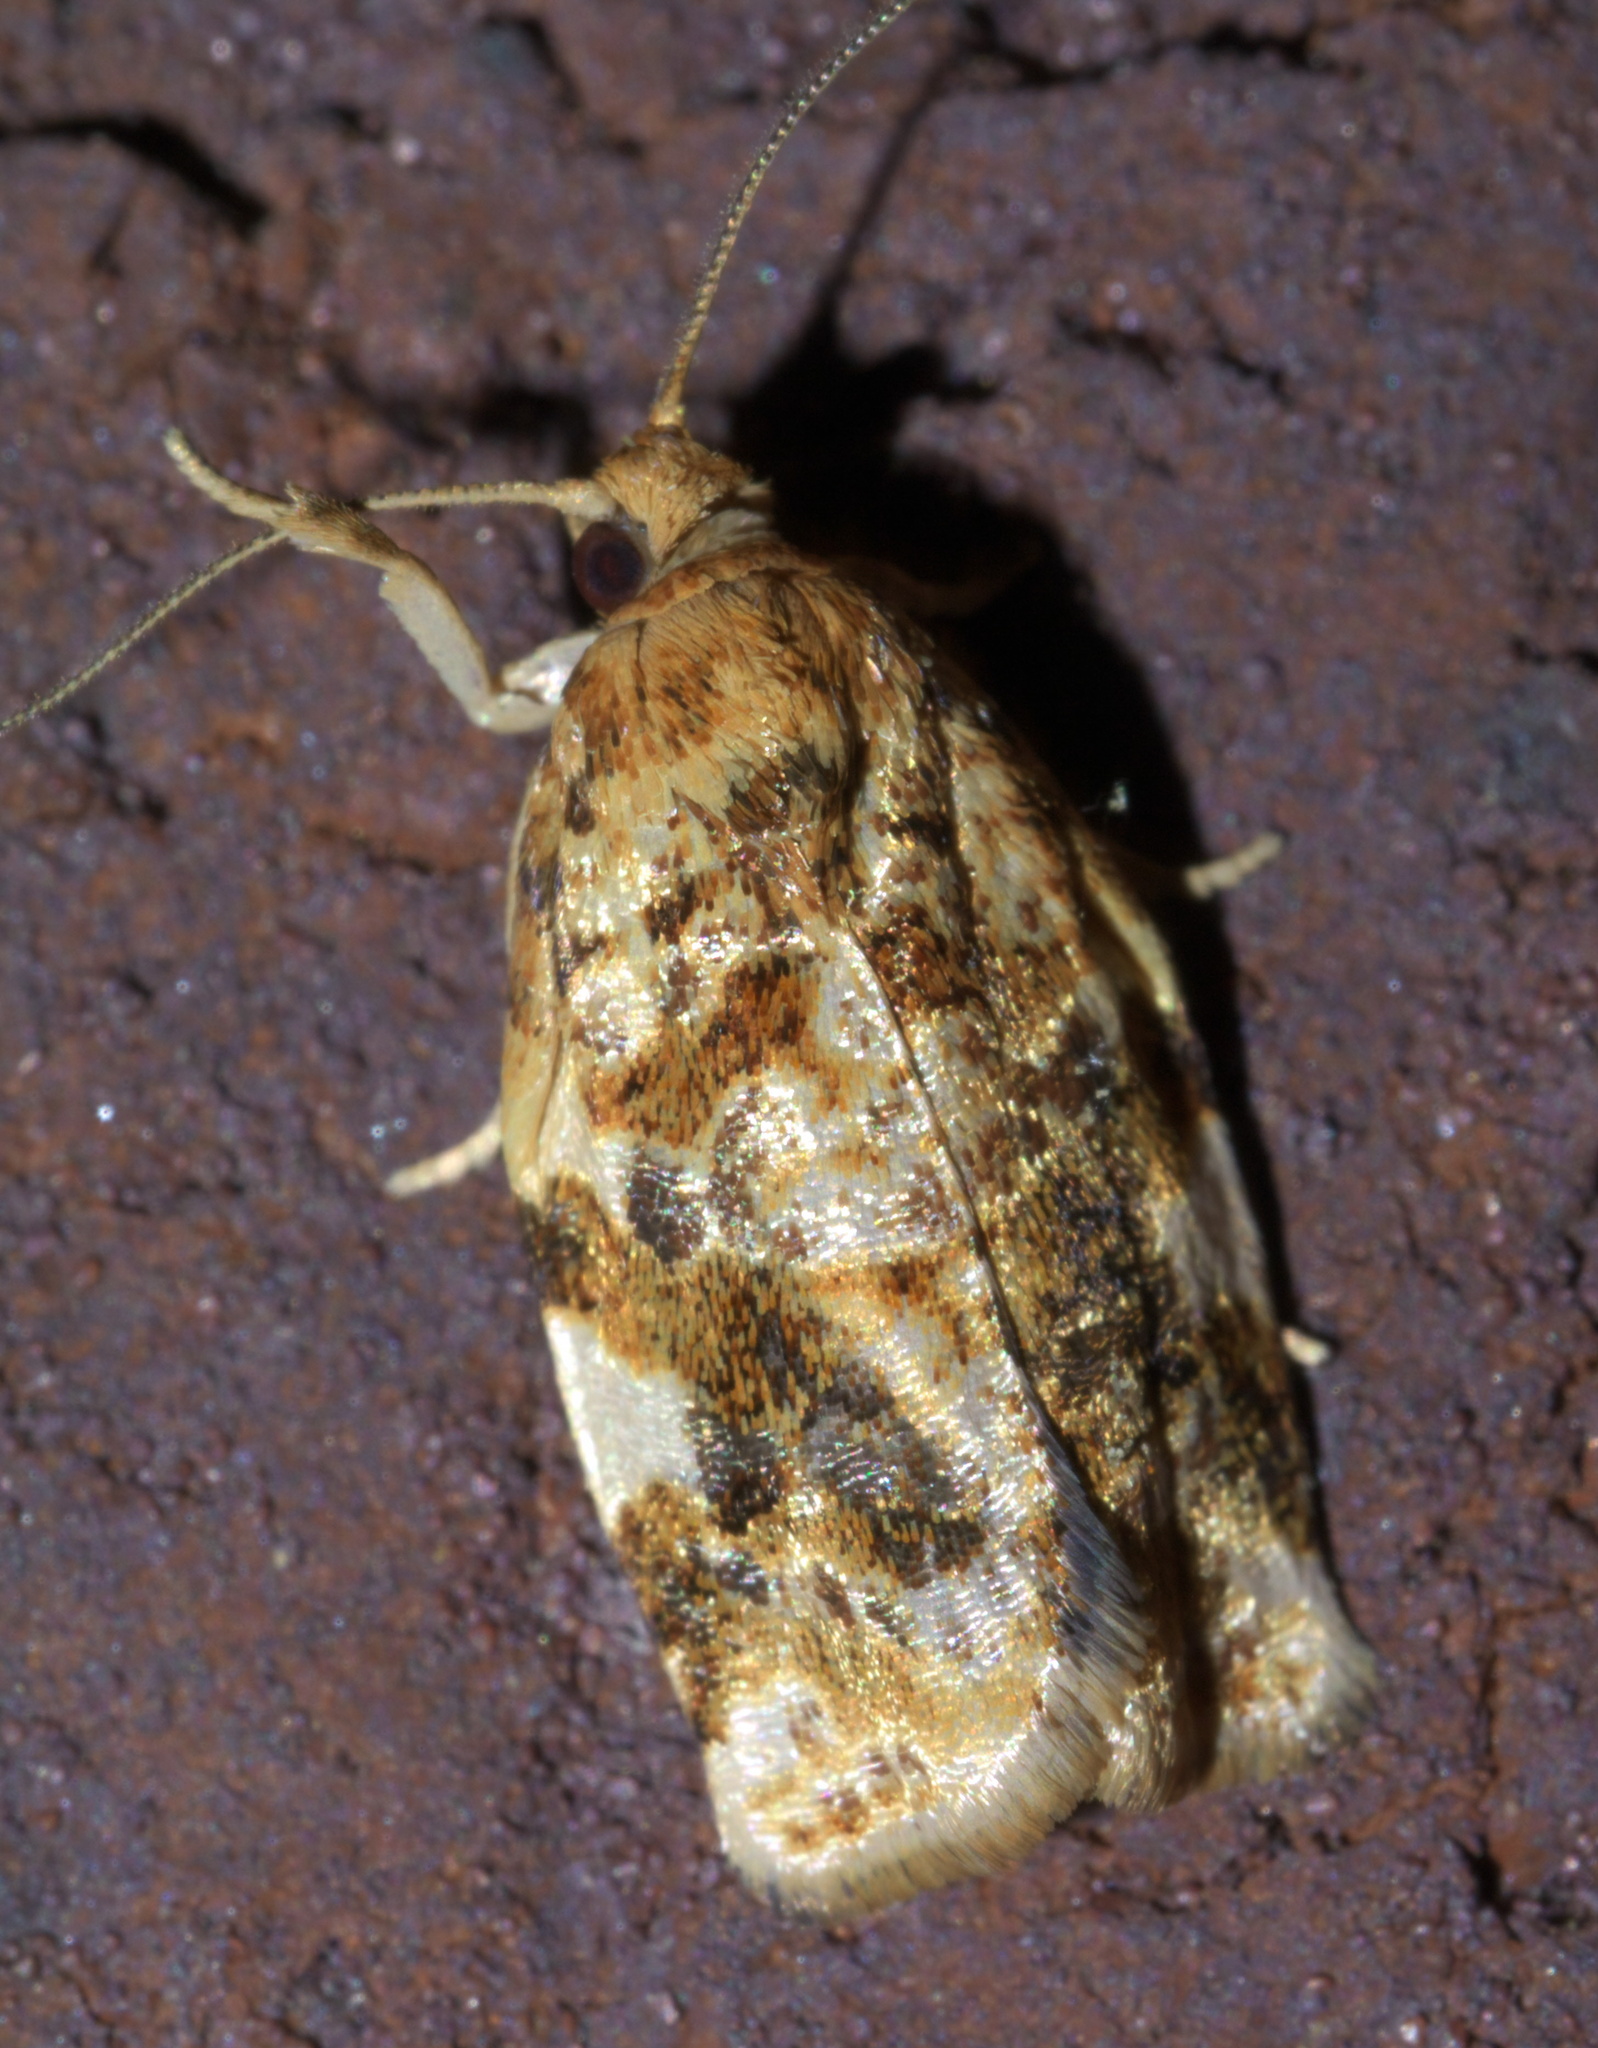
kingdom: Animalia
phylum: Arthropoda
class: Insecta
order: Lepidoptera
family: Tortricidae
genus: Archips
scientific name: Archips argyrospila
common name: Fruit-tree leafroller moth
